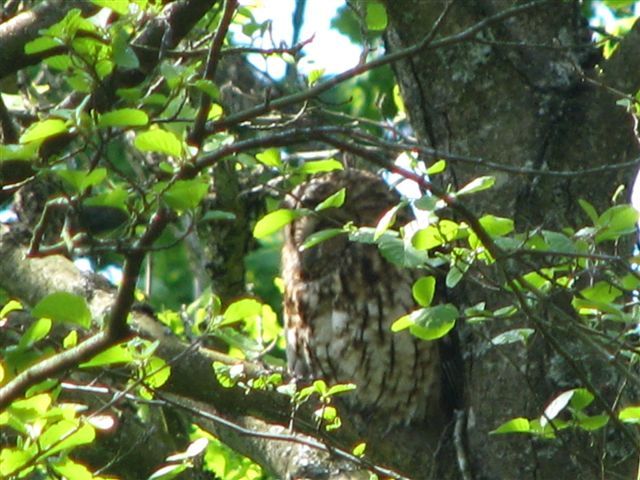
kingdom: Animalia
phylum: Chordata
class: Aves
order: Strigiformes
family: Strigidae
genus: Strix
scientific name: Strix aluco
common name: Tawny owl
